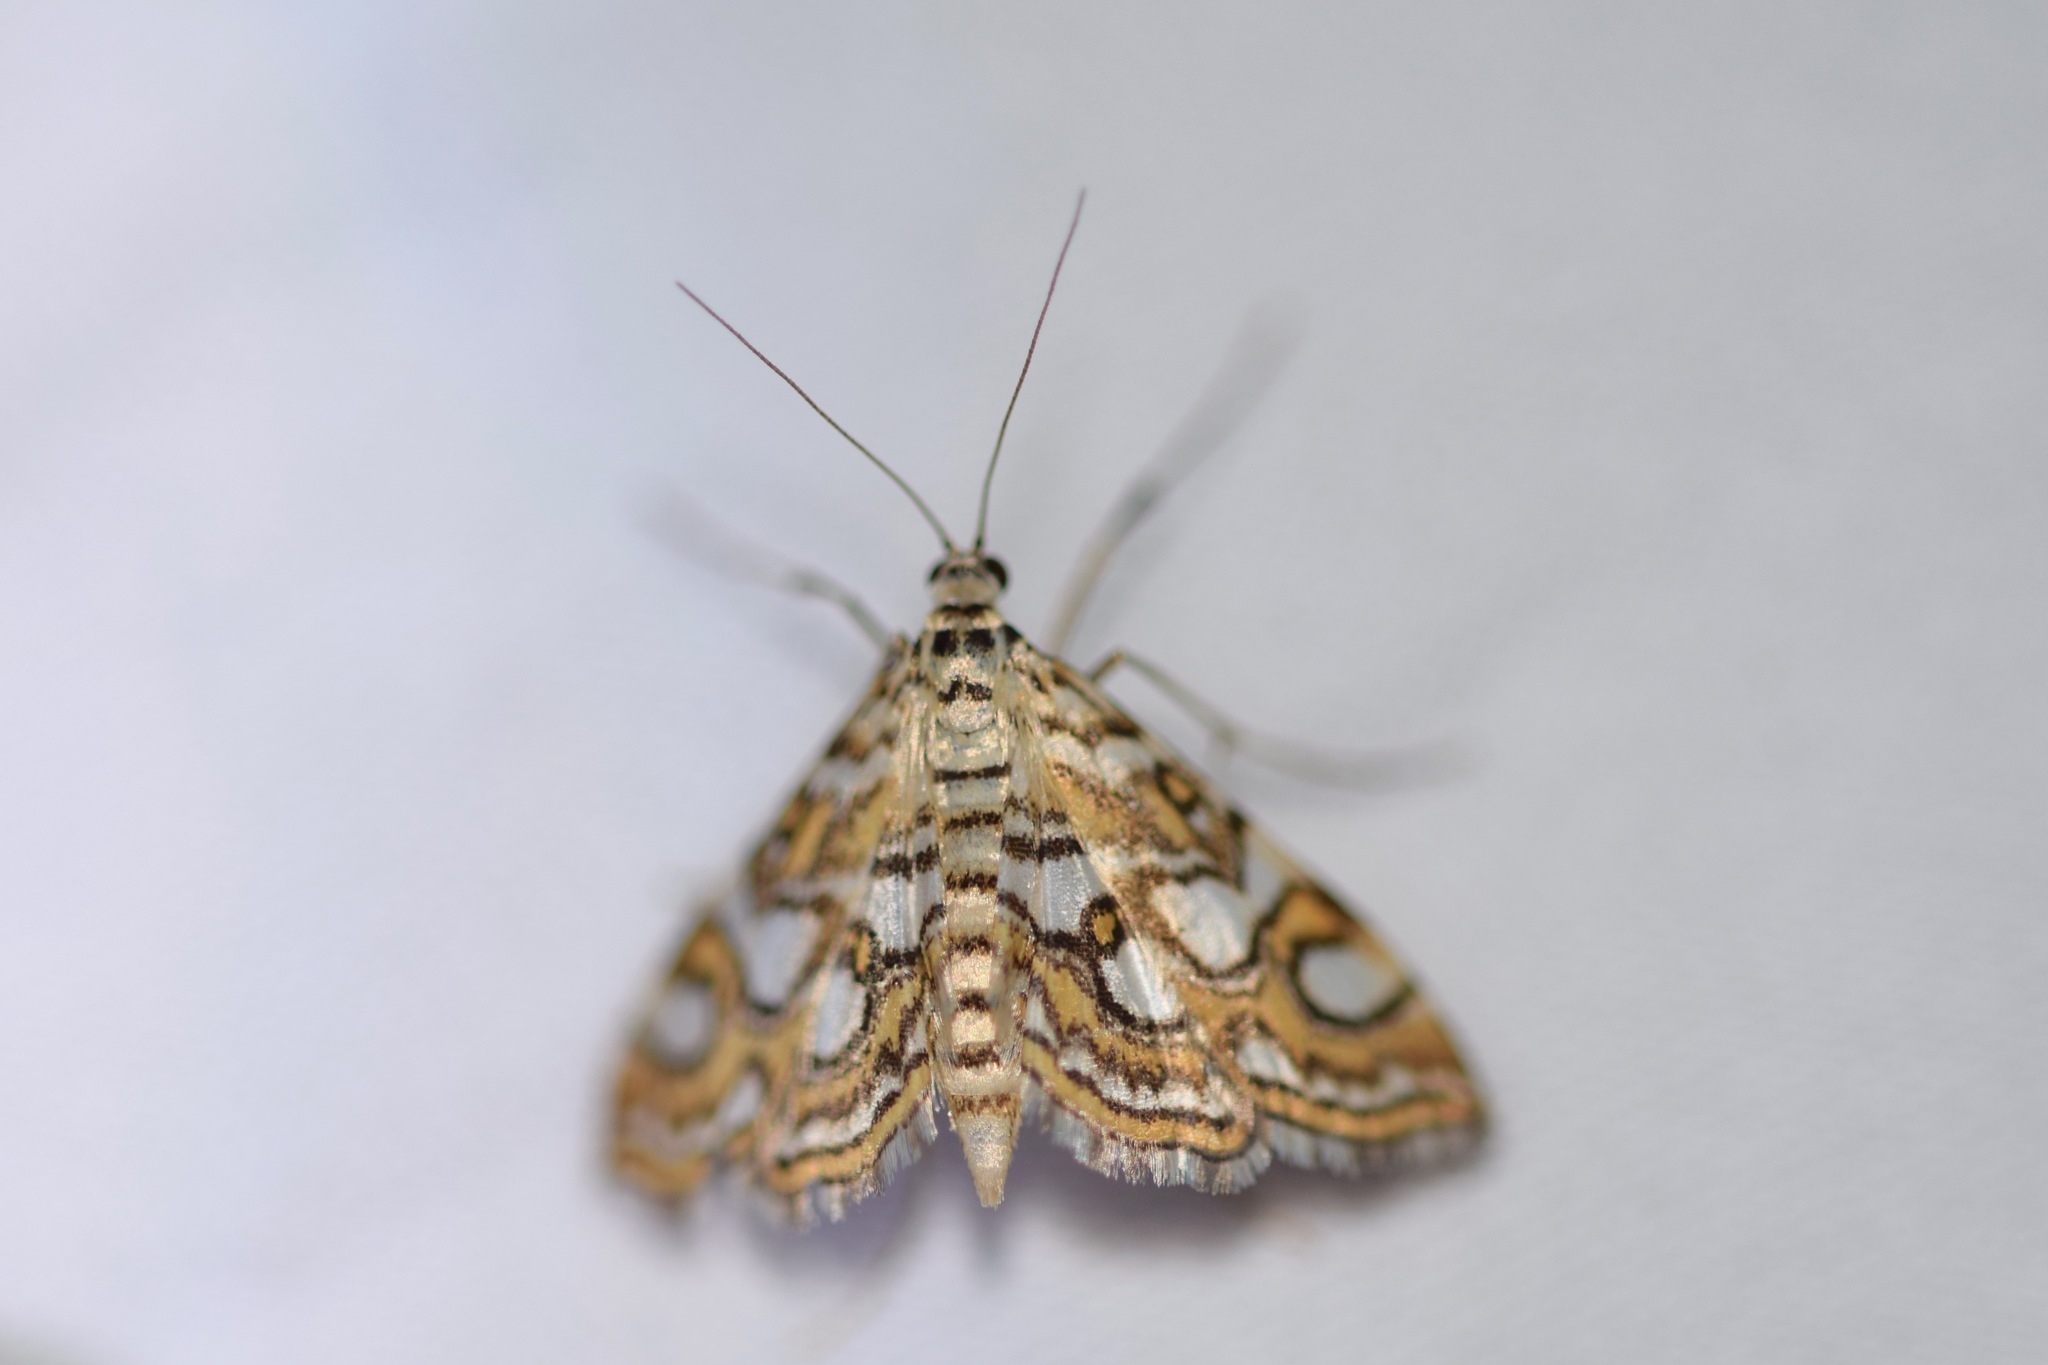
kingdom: Animalia
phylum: Arthropoda
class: Insecta
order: Lepidoptera
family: Crambidae
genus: Elophila
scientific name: Elophila ekthlipsis
